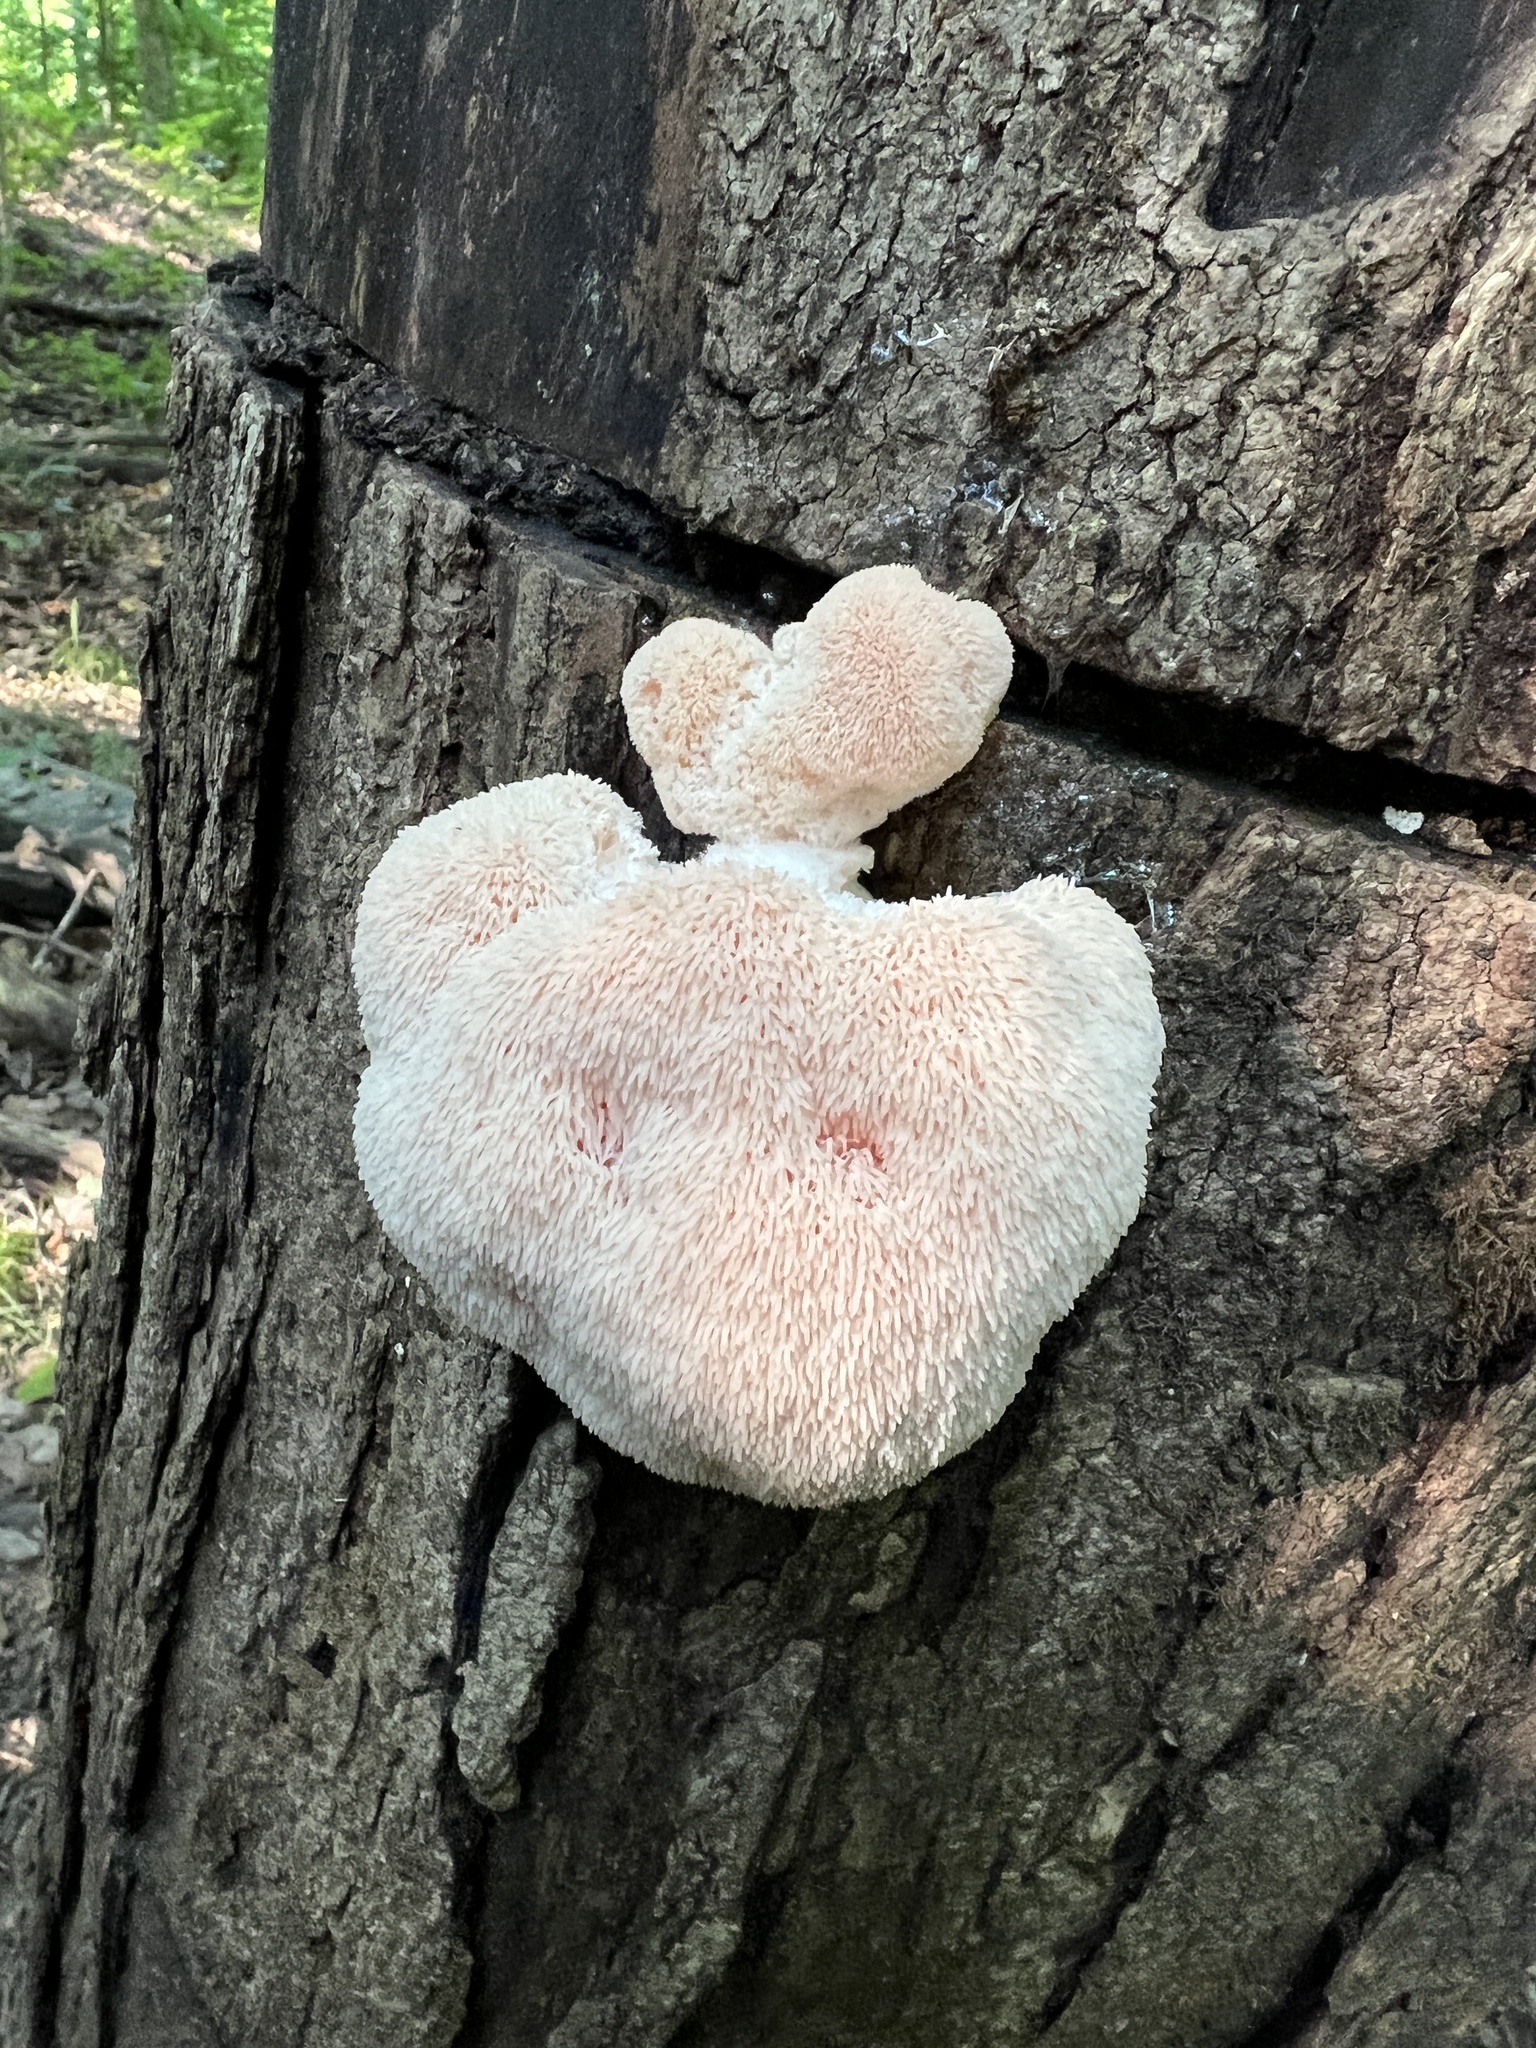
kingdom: Fungi
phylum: Basidiomycota
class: Agaricomycetes
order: Russulales
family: Hericiaceae
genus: Hericium
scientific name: Hericium erinaceus
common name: Bearded tooth
